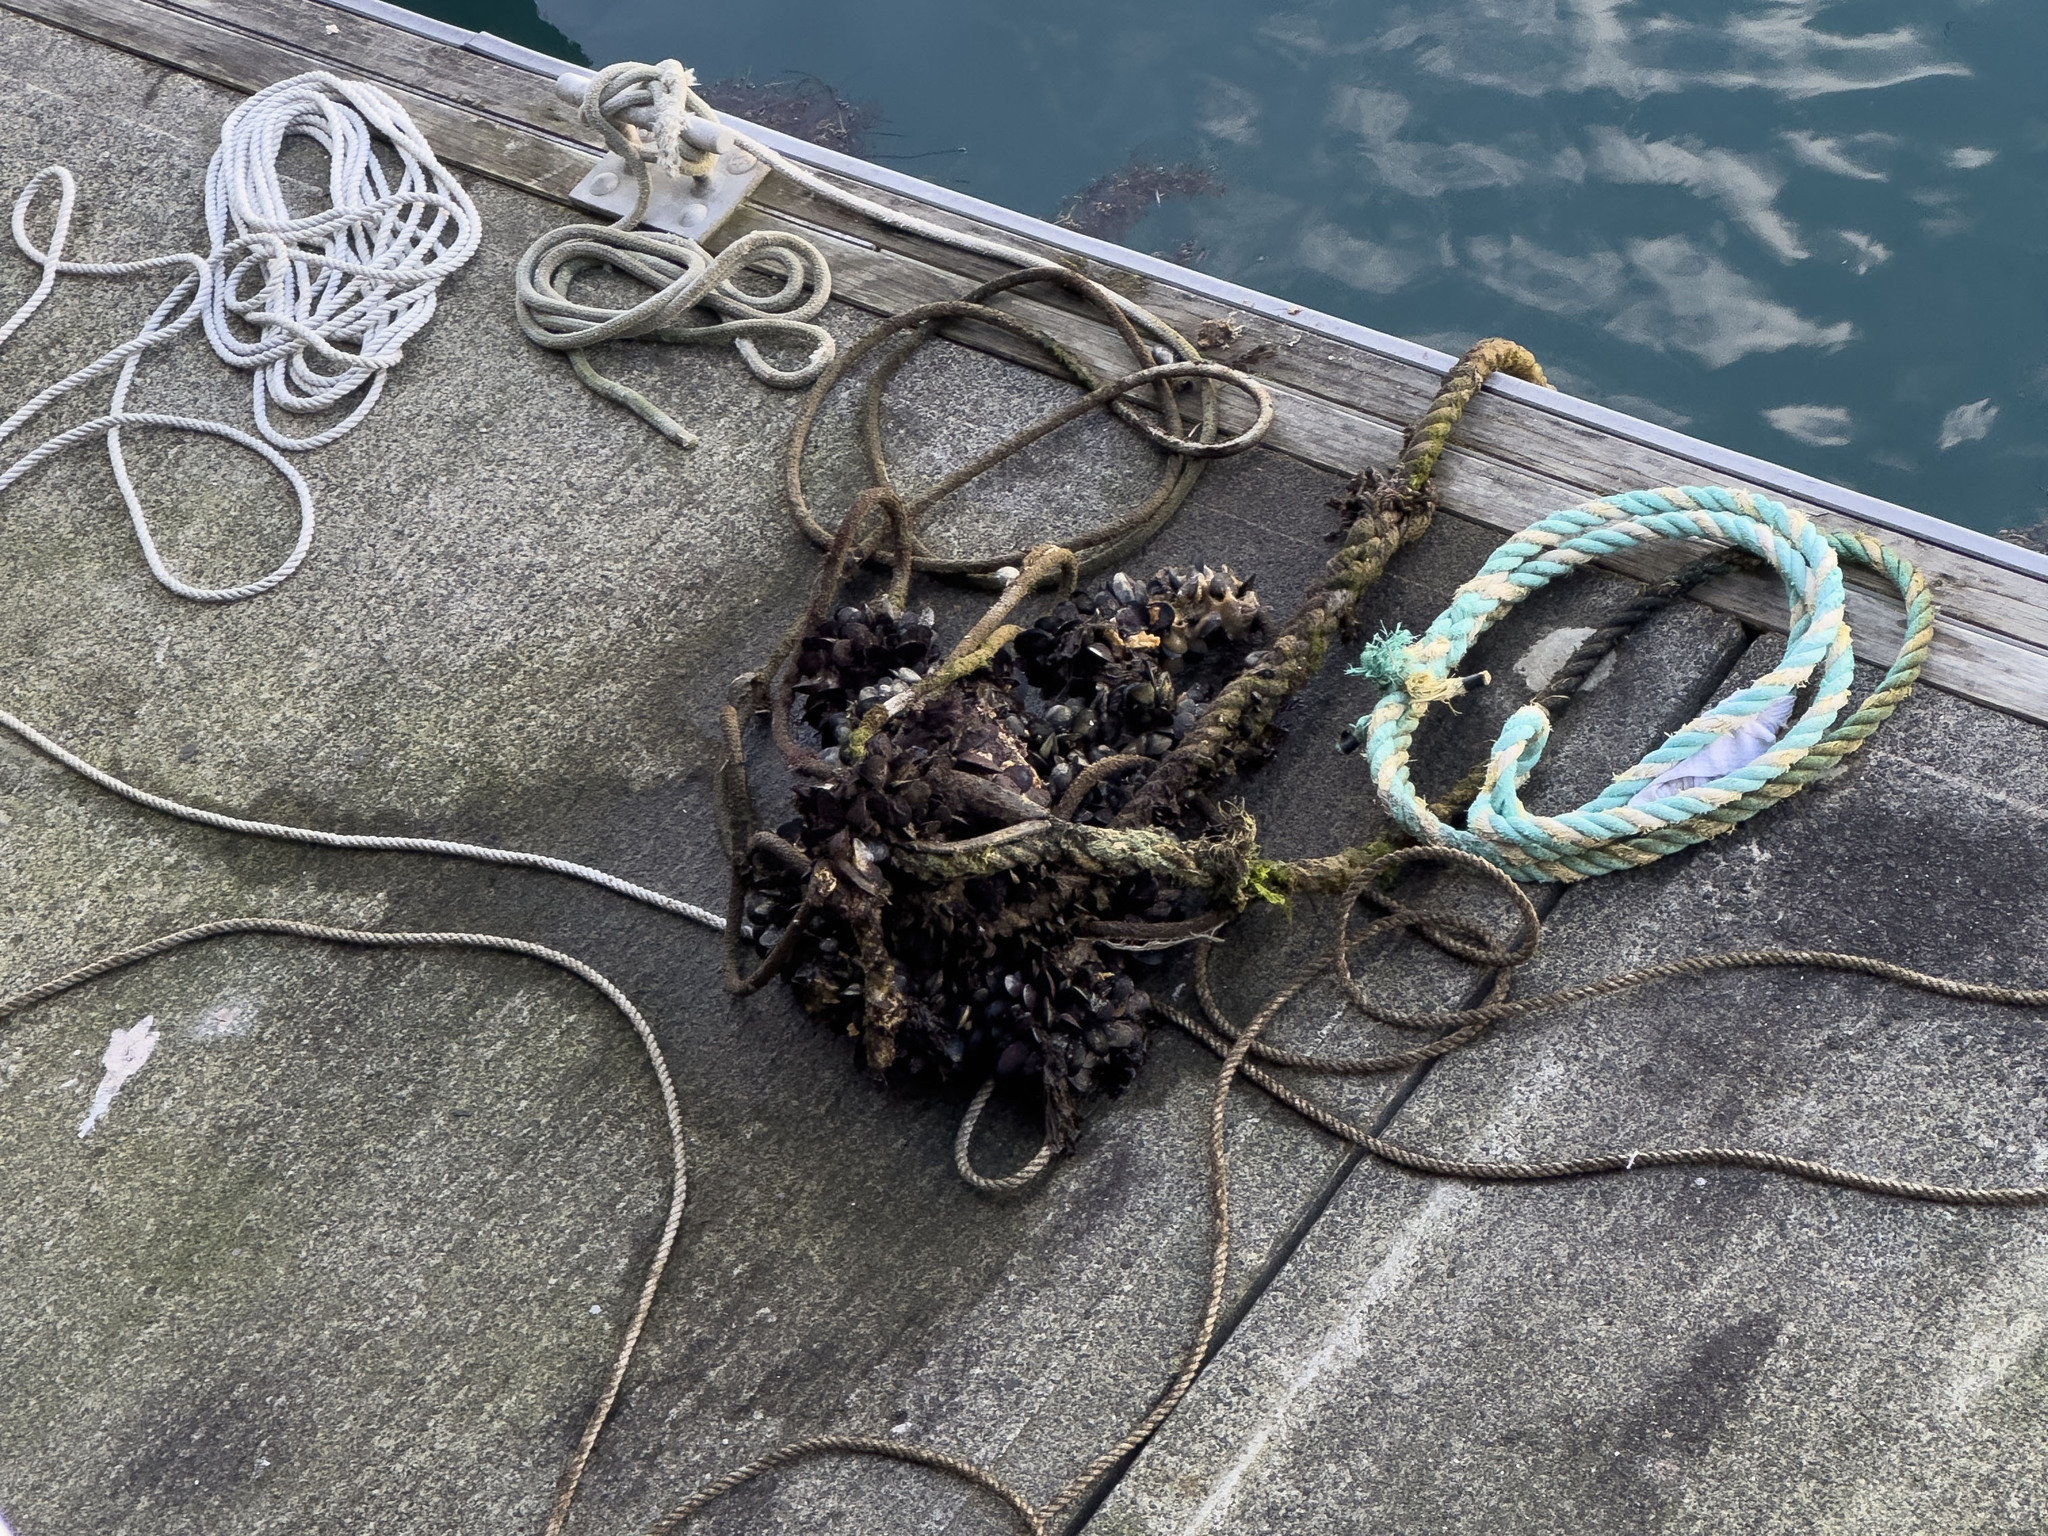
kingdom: Animalia
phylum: Mollusca
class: Bivalvia
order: Mytilida
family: Mytilidae
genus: Mytilus
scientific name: Mytilus planulatus
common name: Australian mussel
